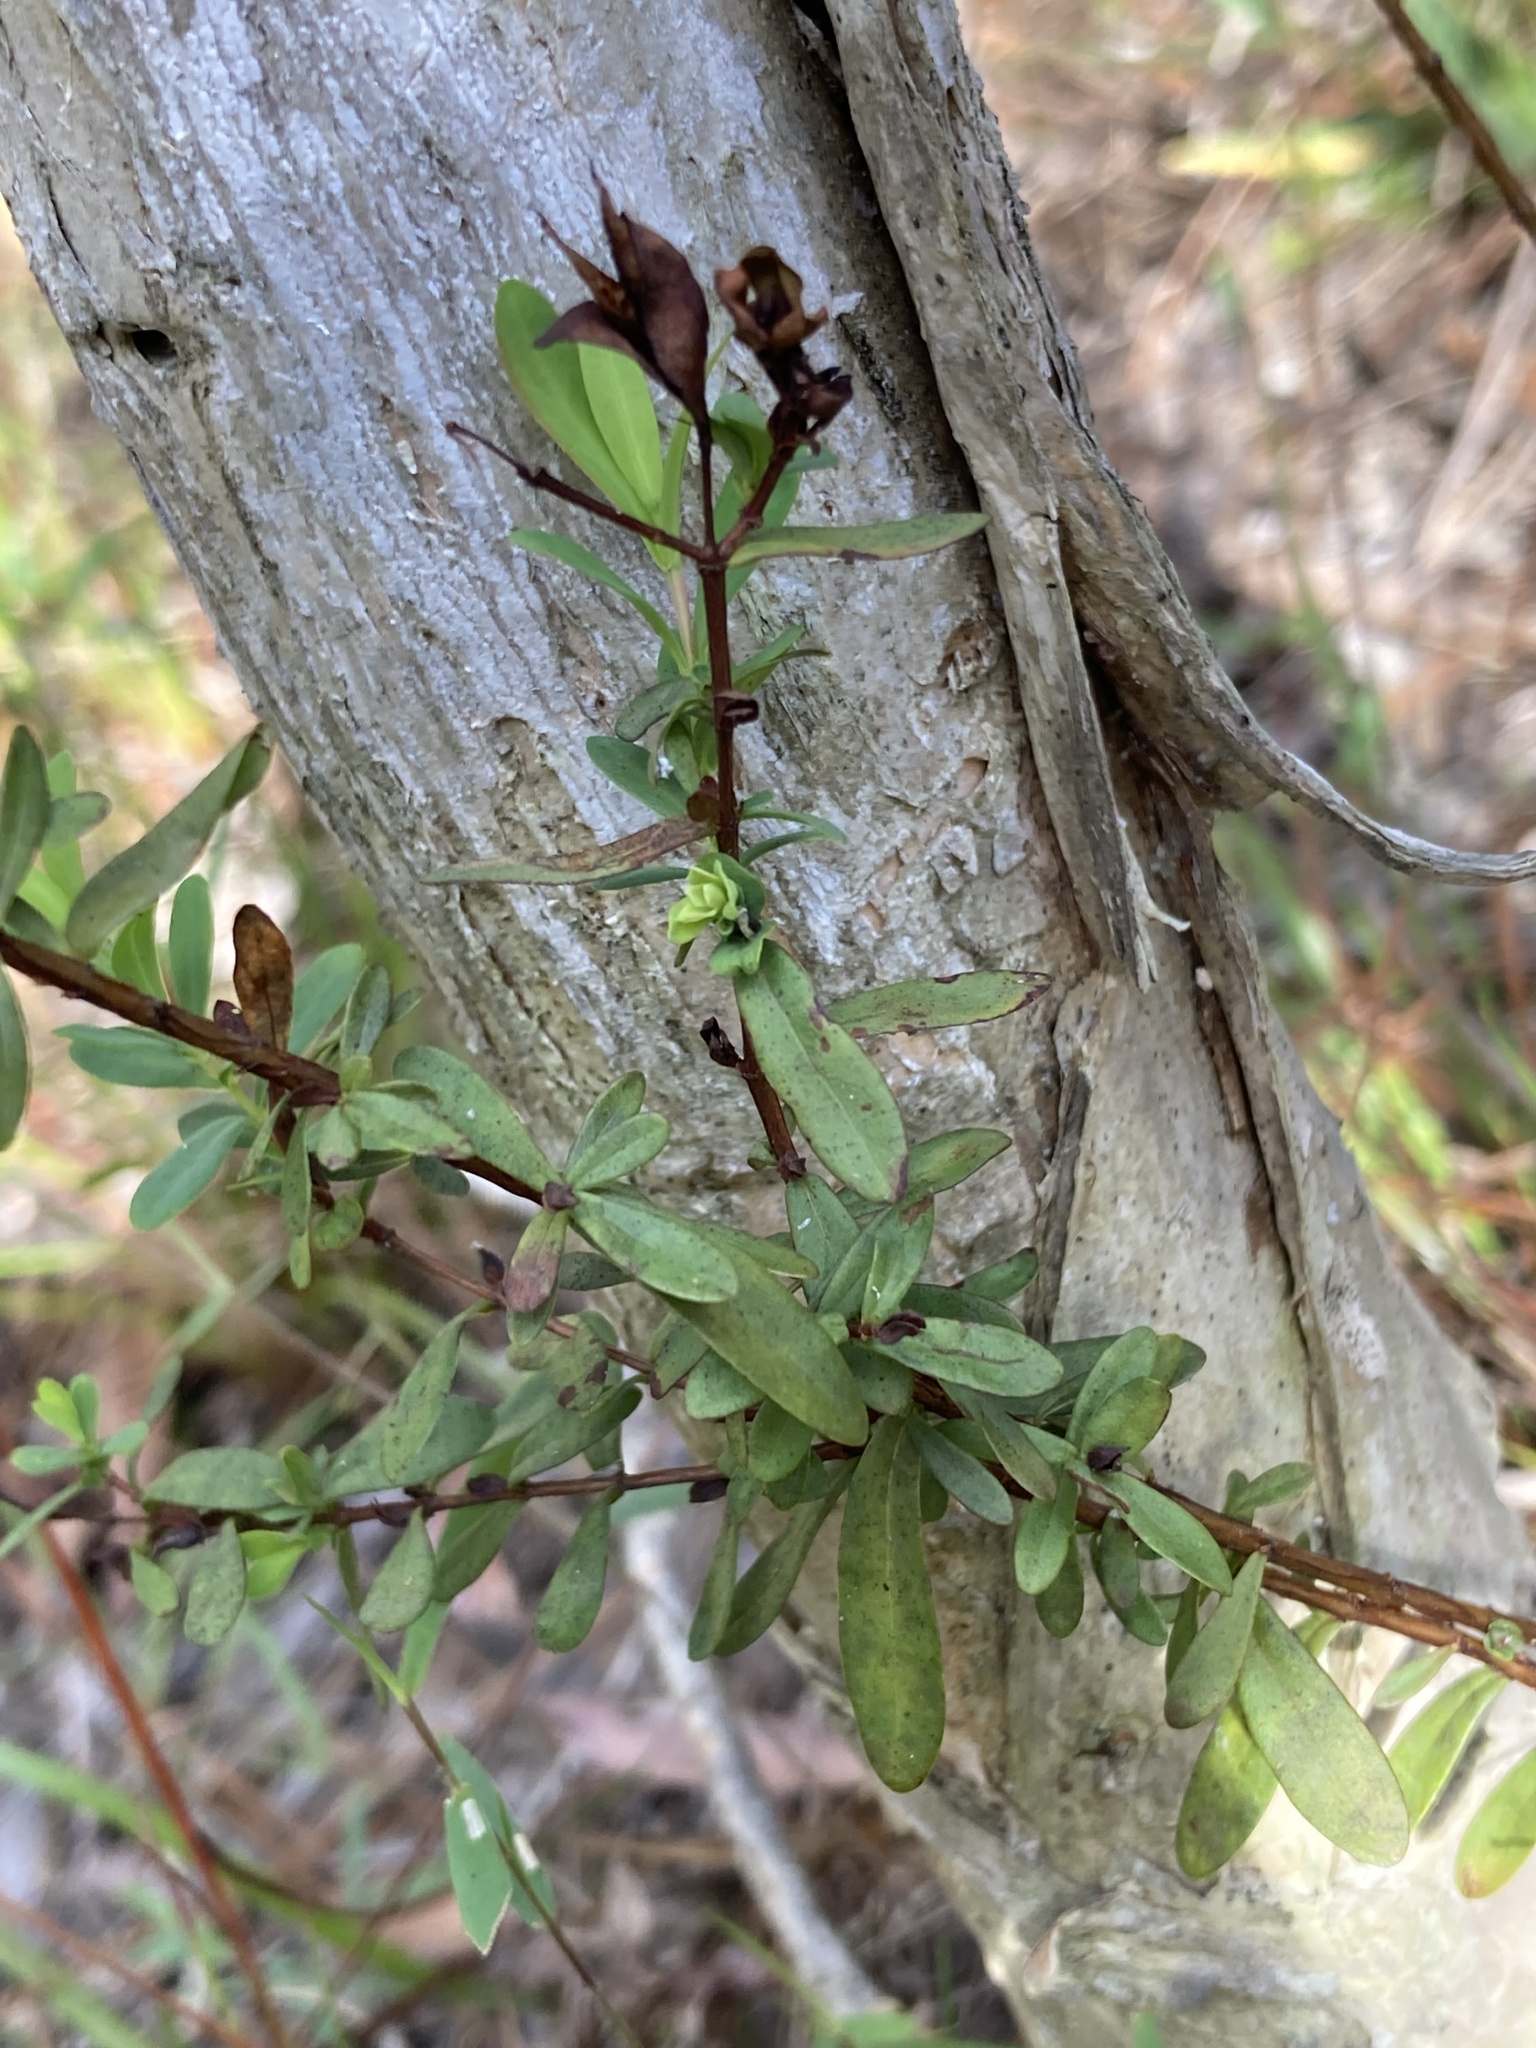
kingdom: Plantae
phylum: Tracheophyta
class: Magnoliopsida
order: Malpighiales
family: Hypericaceae
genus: Hypericum
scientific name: Hypericum hypericoides
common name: St. andrew's cross
